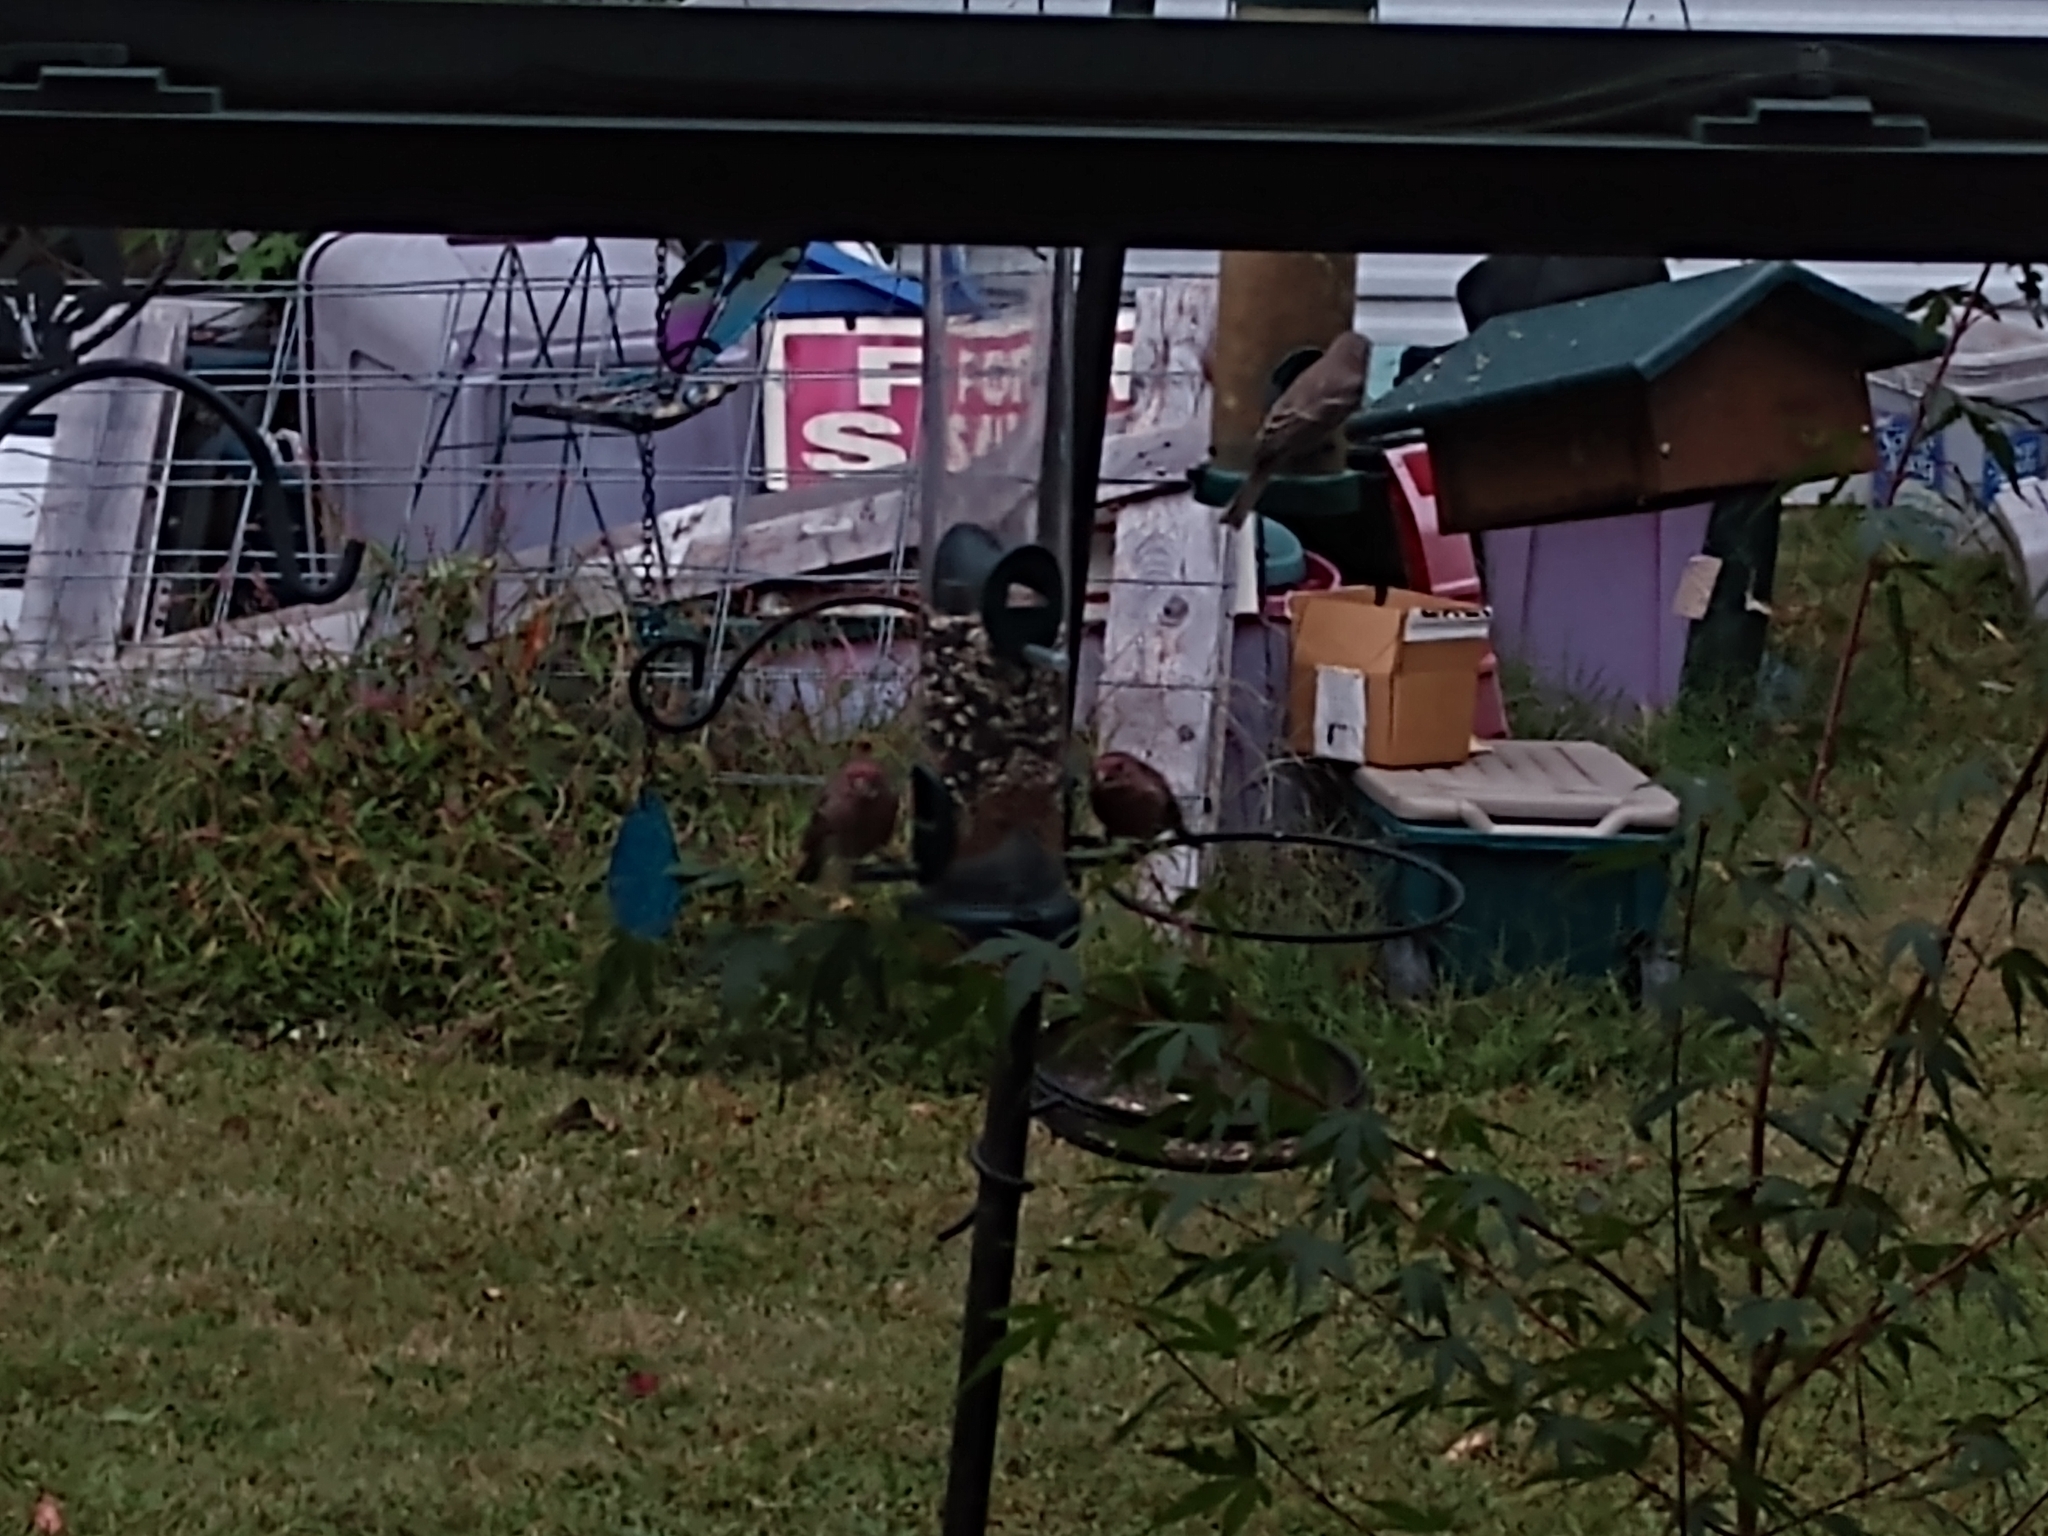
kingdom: Animalia
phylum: Chordata
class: Aves
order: Passeriformes
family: Fringillidae
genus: Haemorhous
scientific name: Haemorhous mexicanus
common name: House finch
